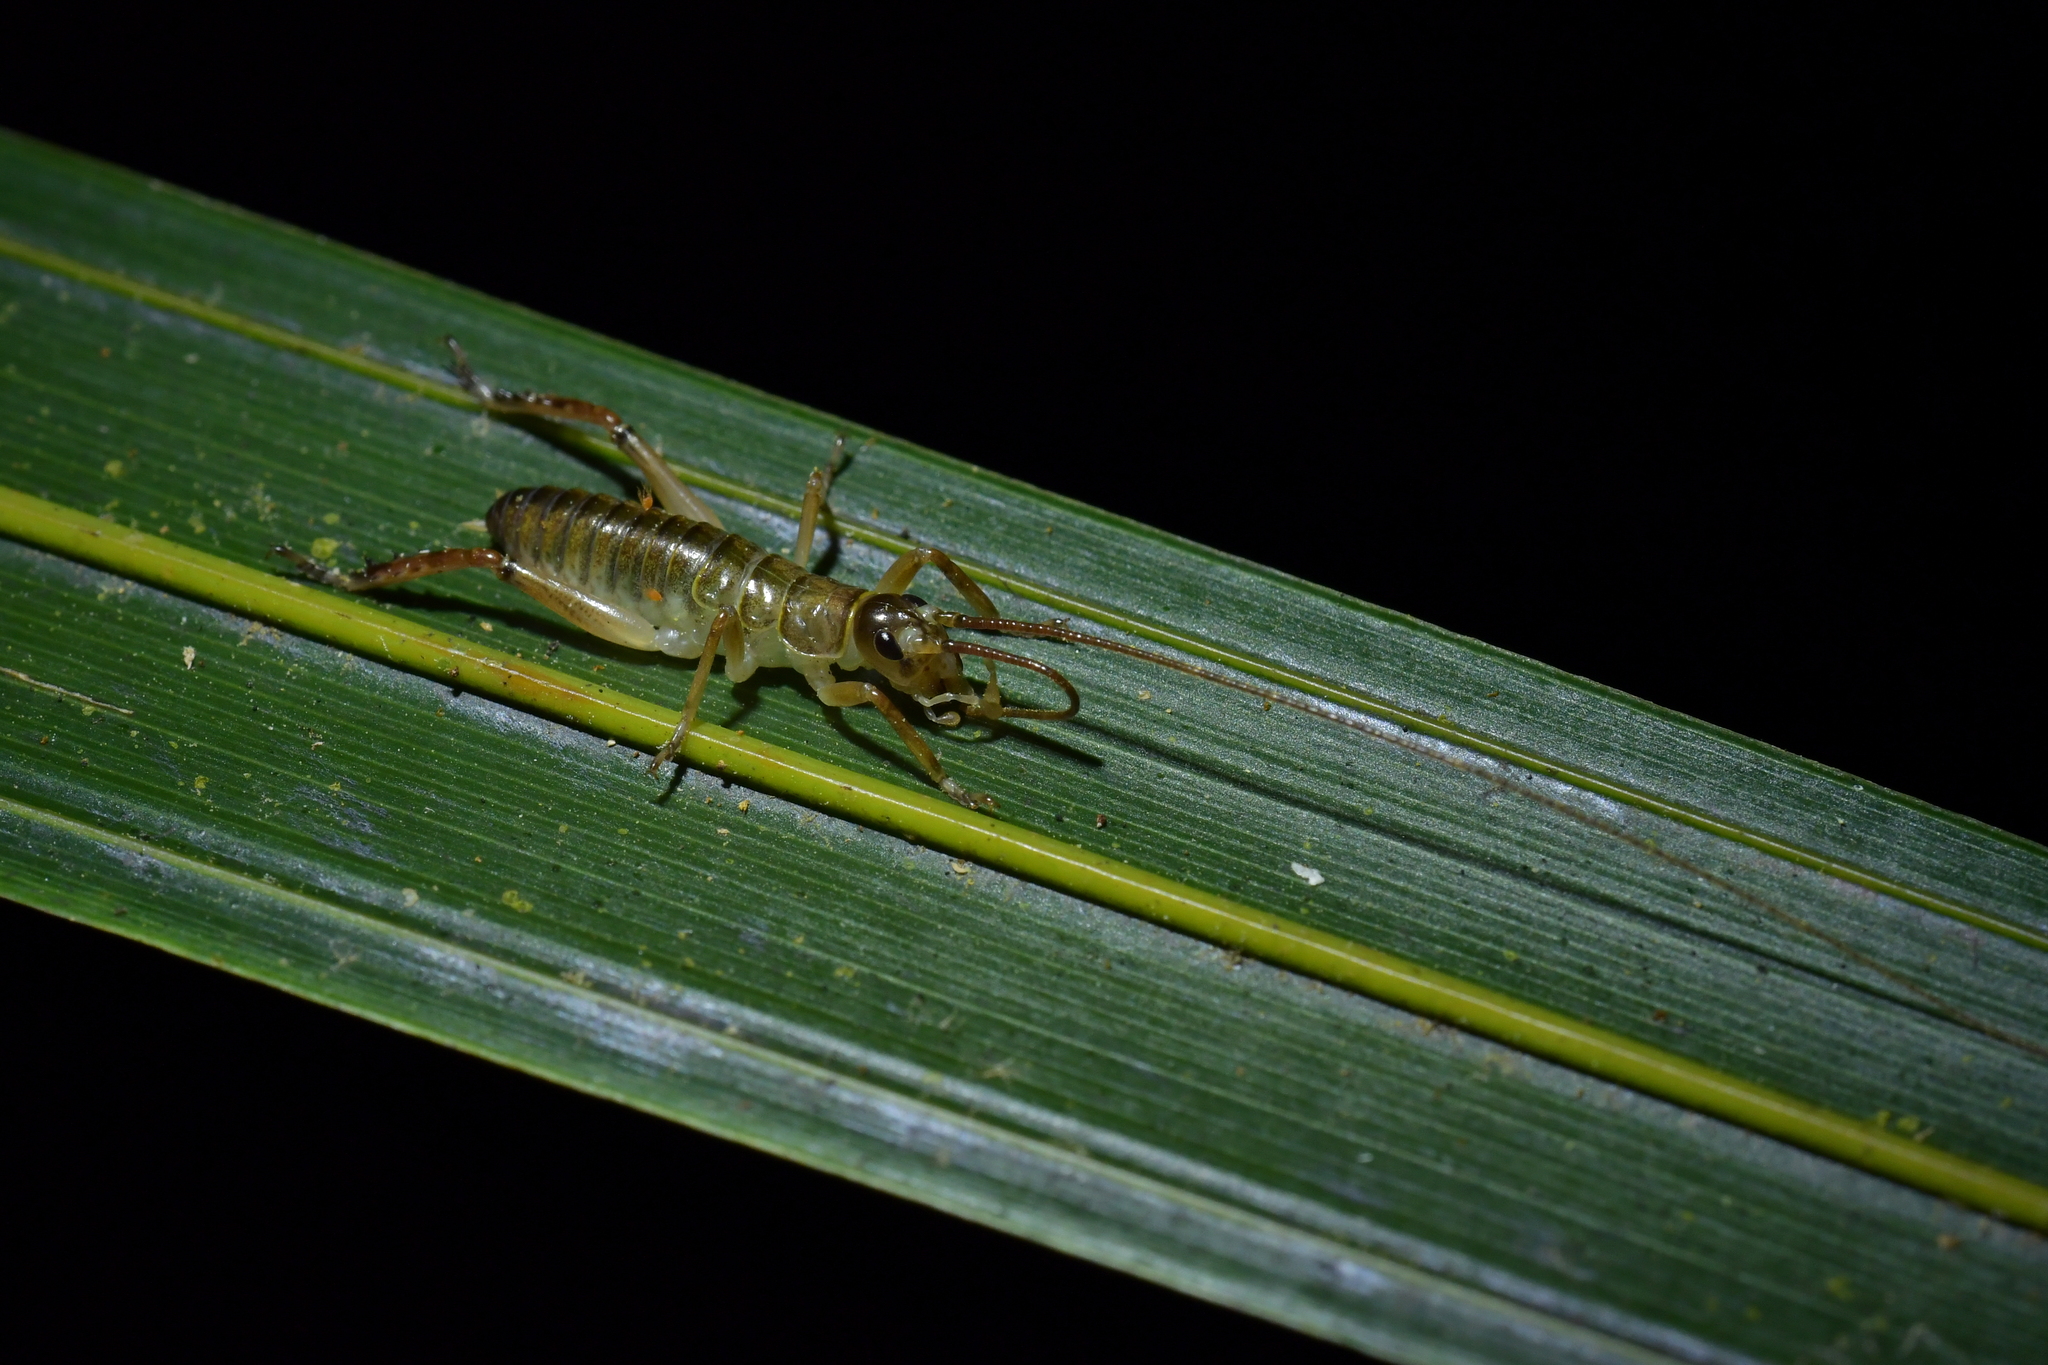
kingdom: Animalia
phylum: Arthropoda
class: Insecta
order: Orthoptera
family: Anostostomatidae
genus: Hemideina
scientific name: Hemideina thoracica
